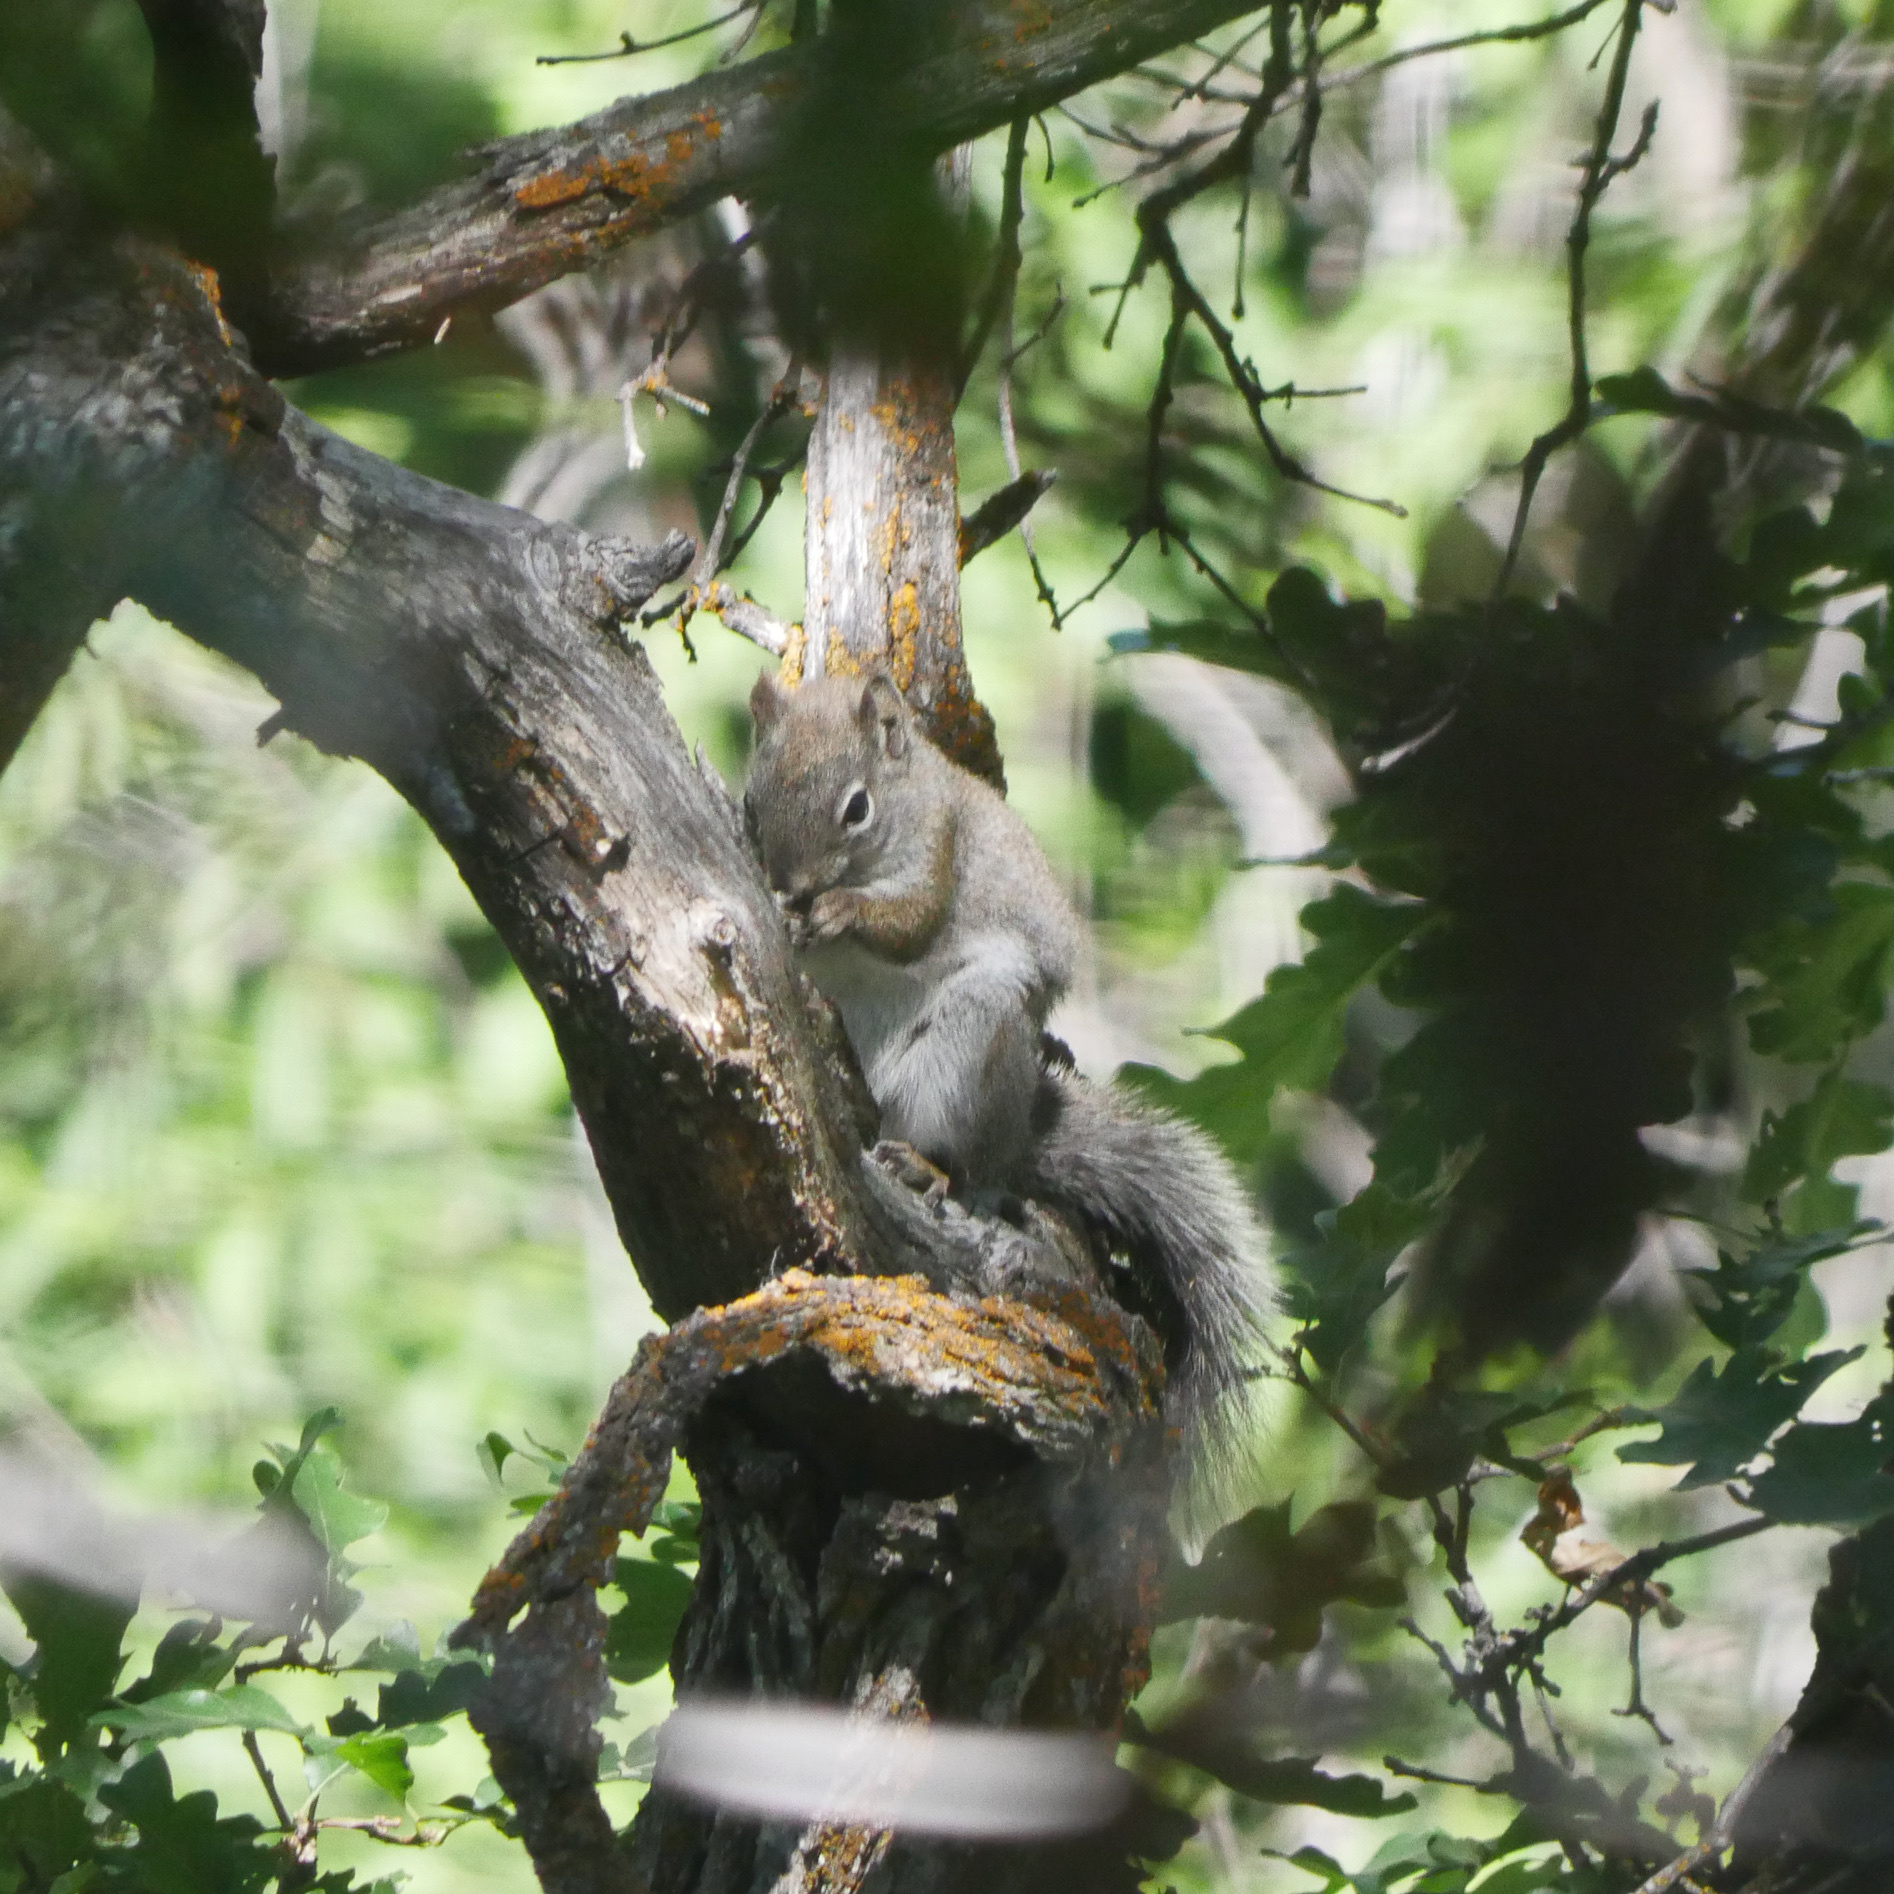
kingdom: Animalia
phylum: Chordata
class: Mammalia
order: Rodentia
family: Sciuridae
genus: Tamiasciurus
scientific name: Tamiasciurus hudsonicus
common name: Red squirrel
